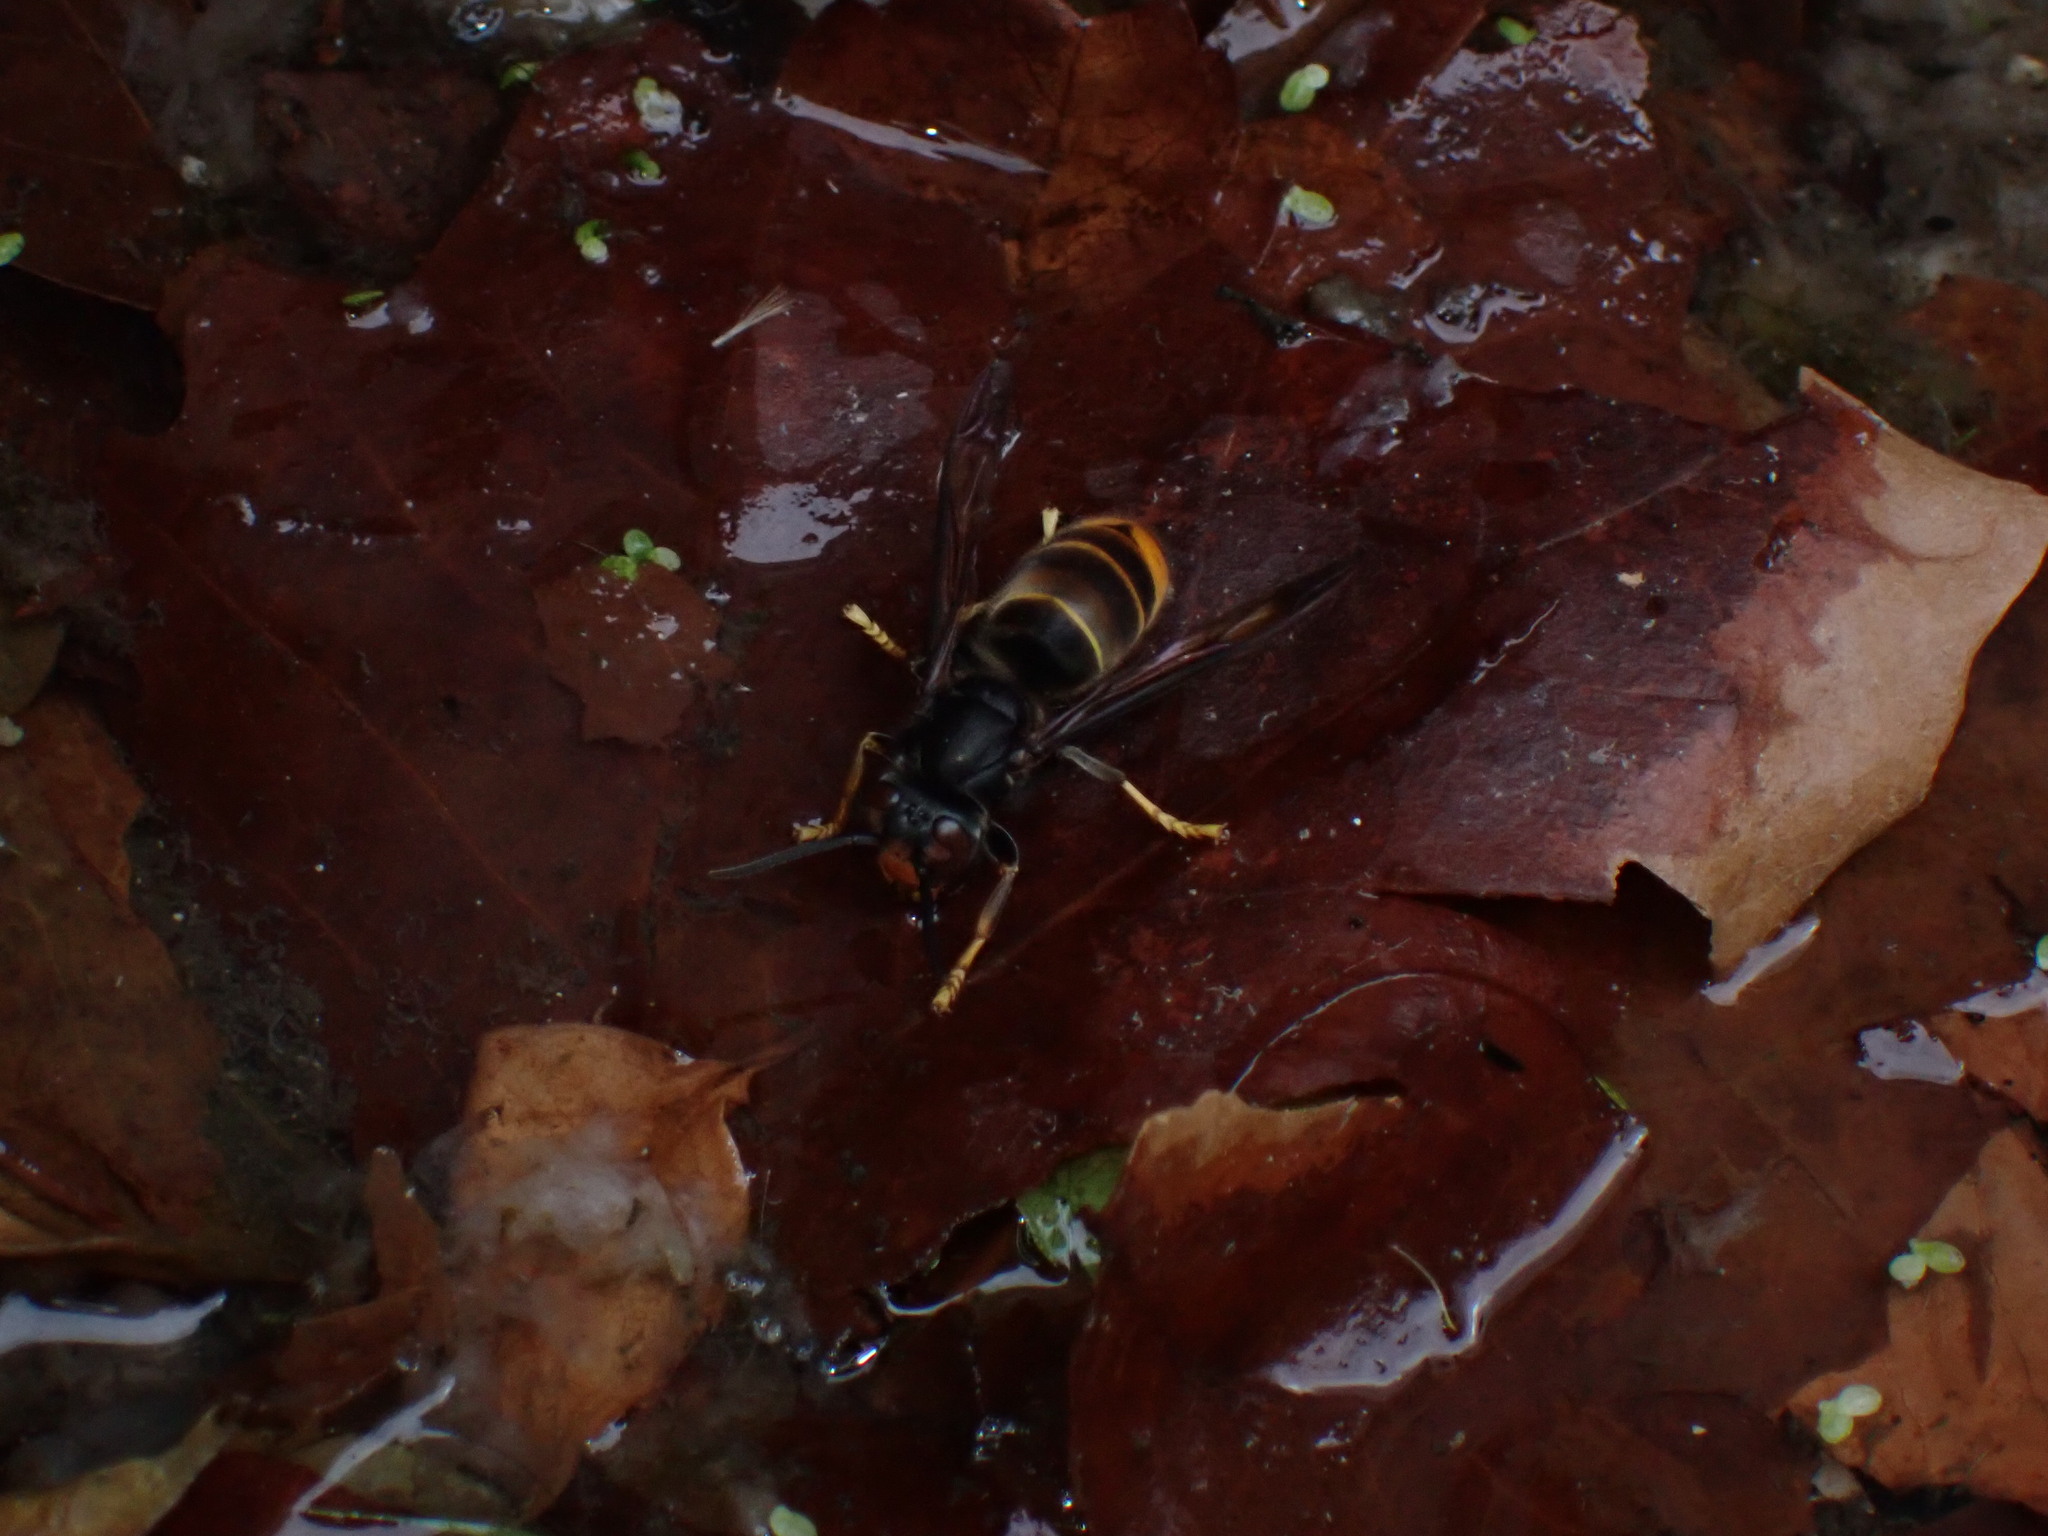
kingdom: Animalia
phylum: Arthropoda
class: Insecta
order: Hymenoptera
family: Vespidae
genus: Vespa
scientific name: Vespa velutina
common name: Asian hornet
